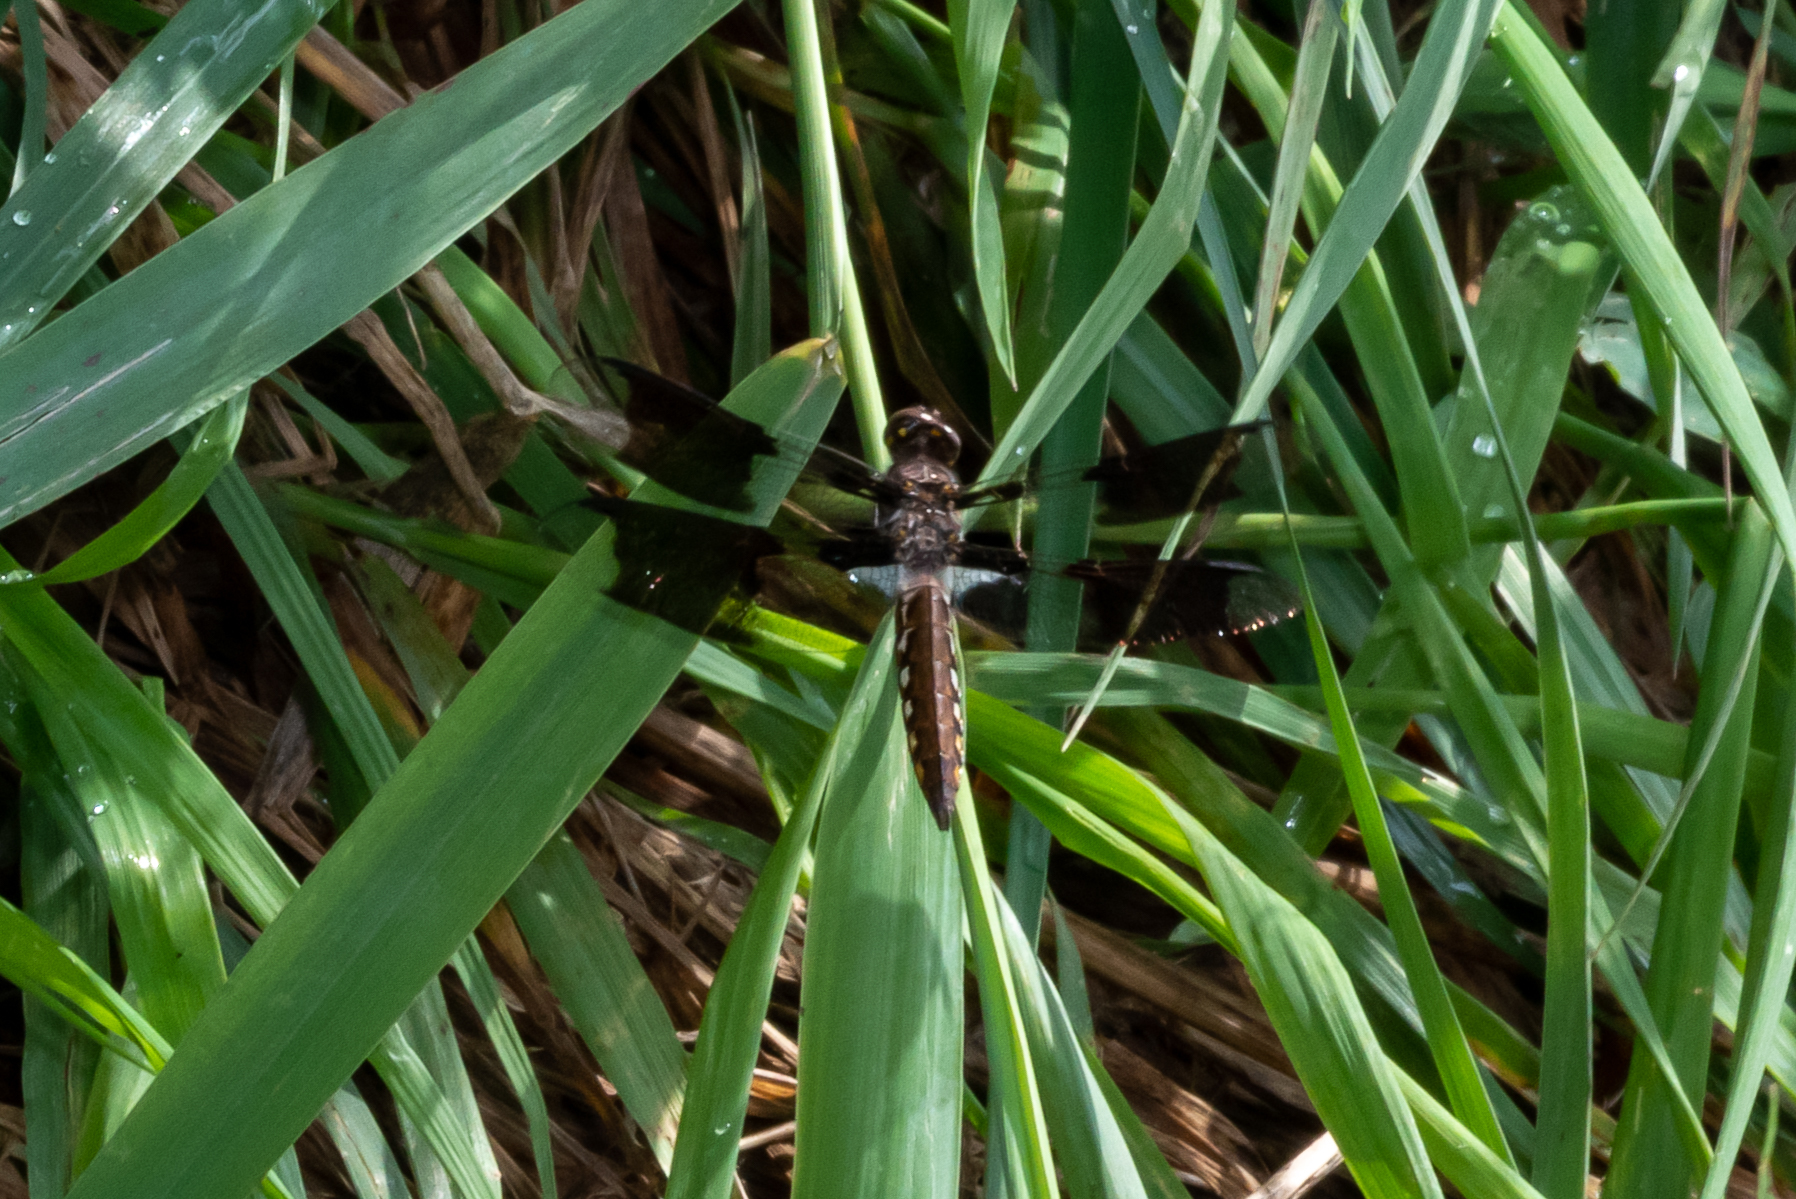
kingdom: Animalia
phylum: Arthropoda
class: Insecta
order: Odonata
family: Libellulidae
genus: Plathemis
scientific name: Plathemis lydia
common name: Common whitetail
